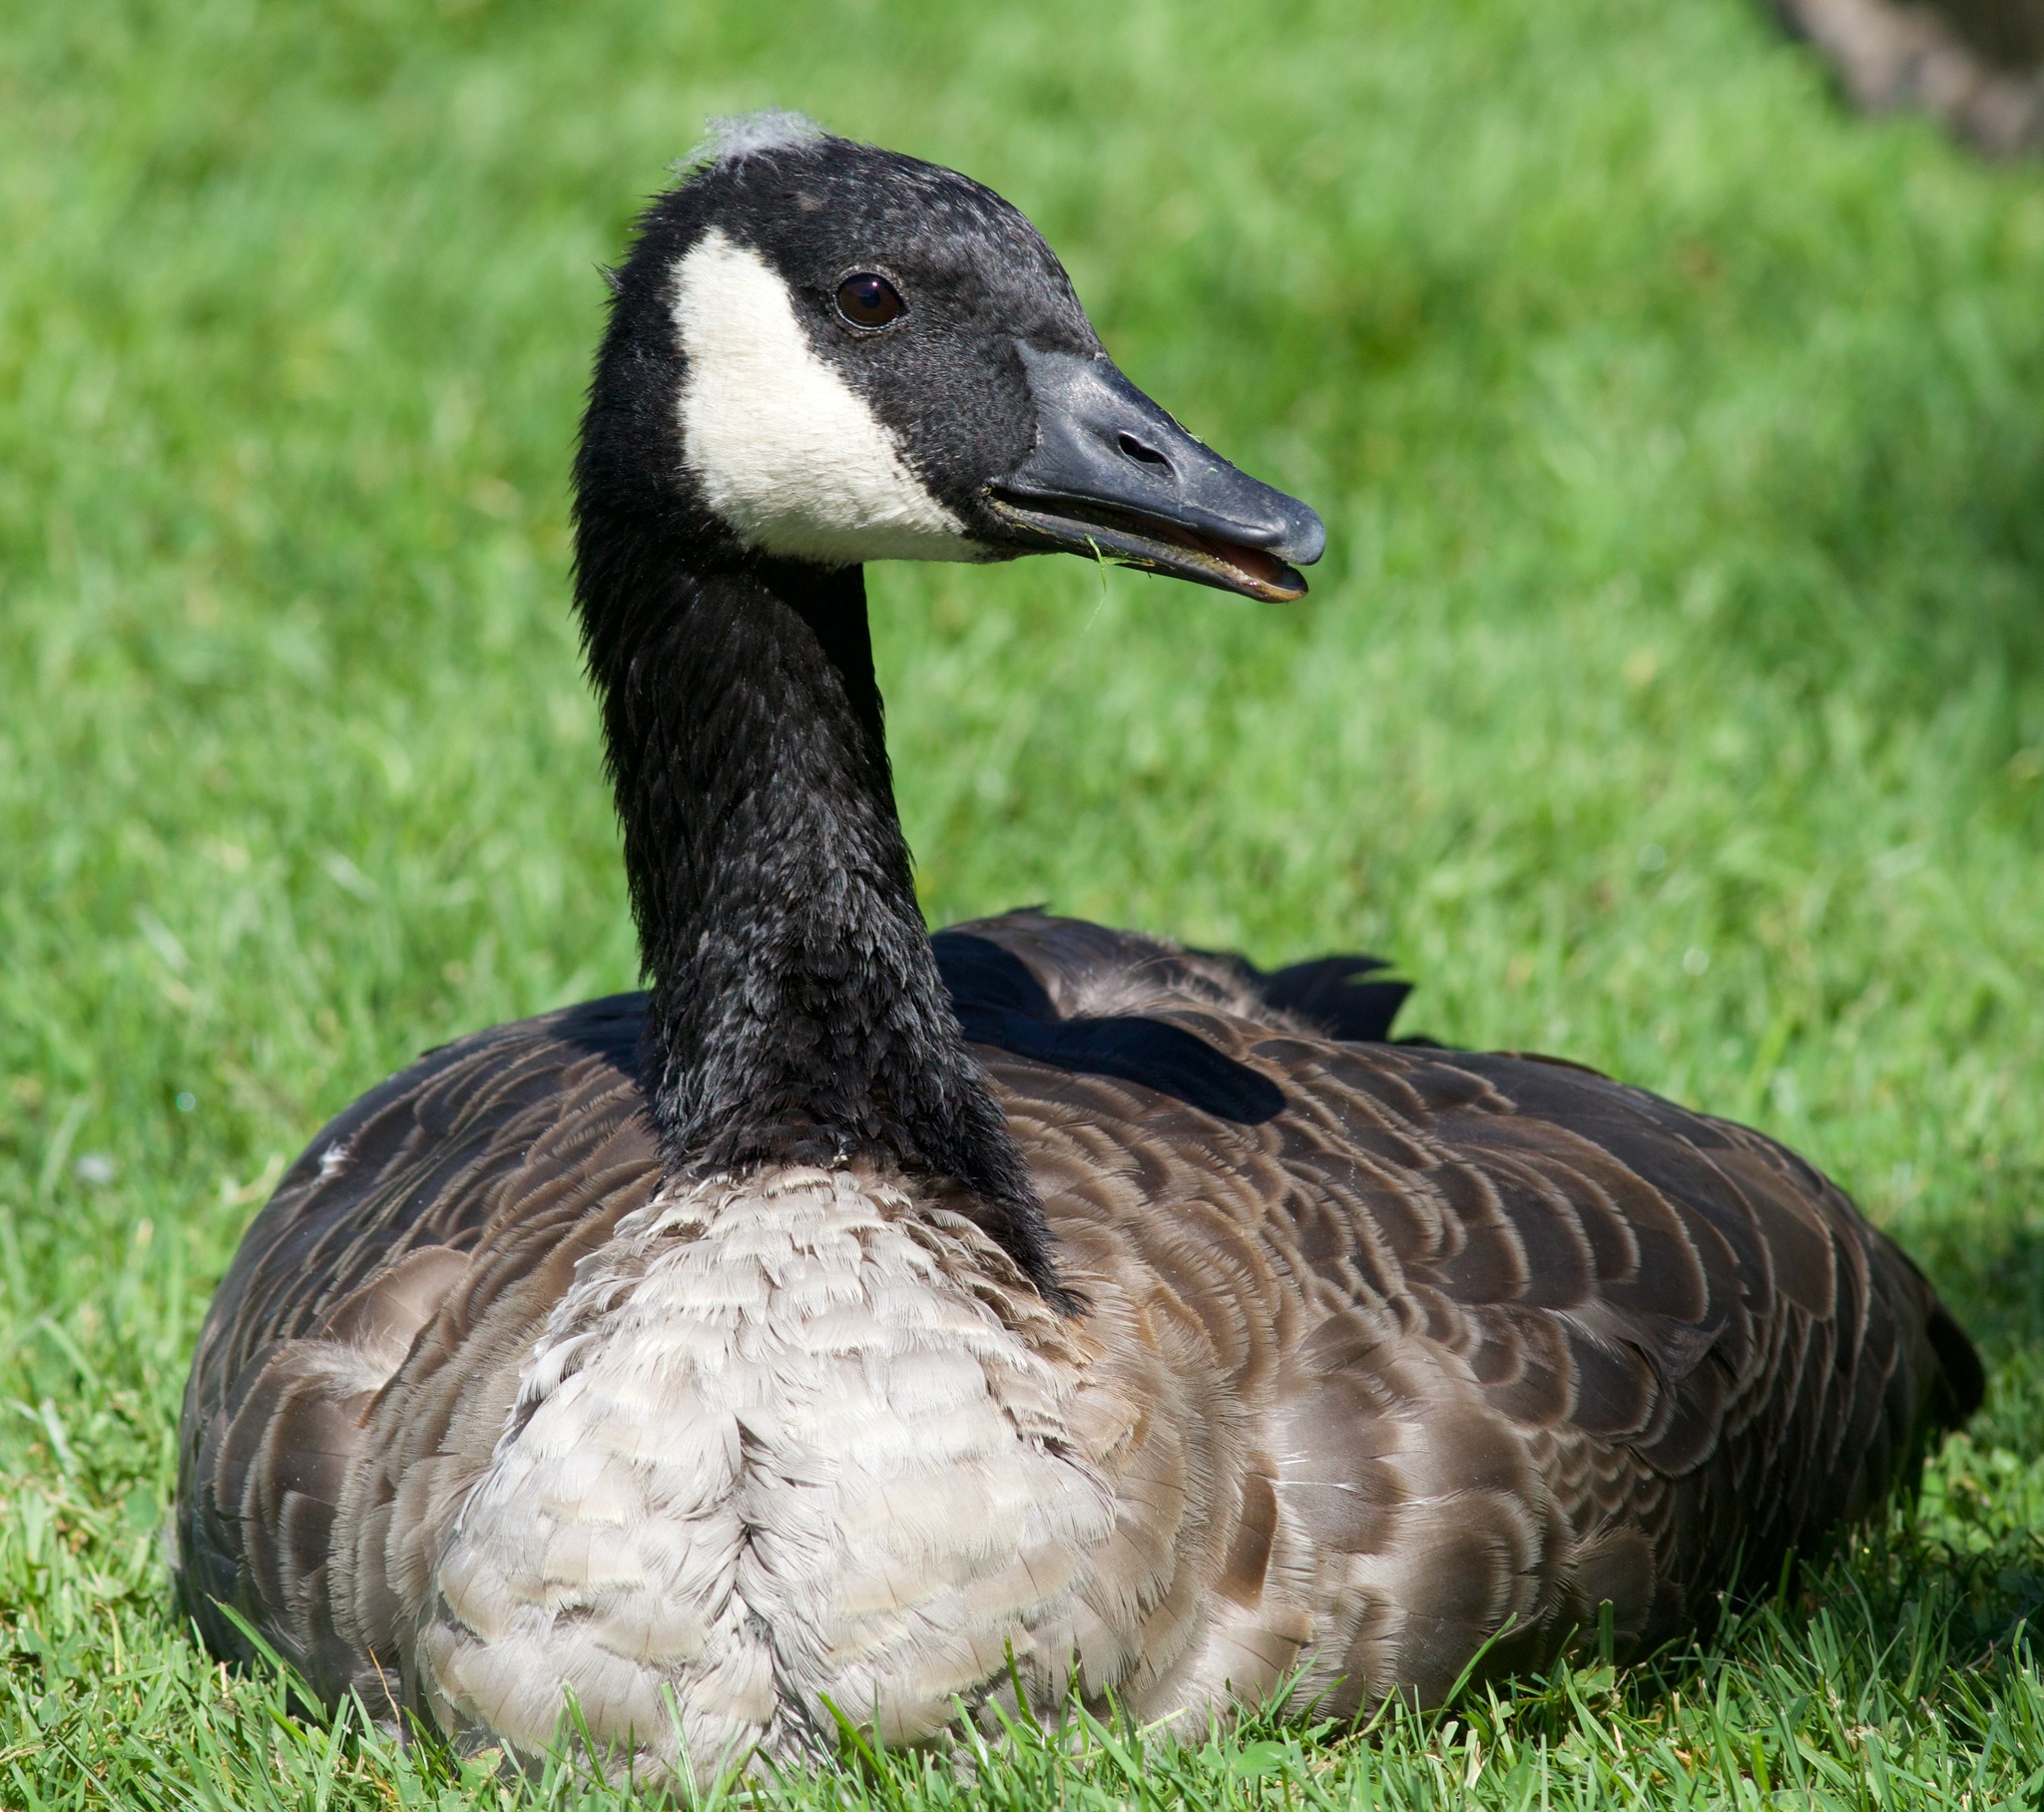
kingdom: Animalia
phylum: Chordata
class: Aves
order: Anseriformes
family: Anatidae
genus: Branta
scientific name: Branta canadensis
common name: Canada goose
